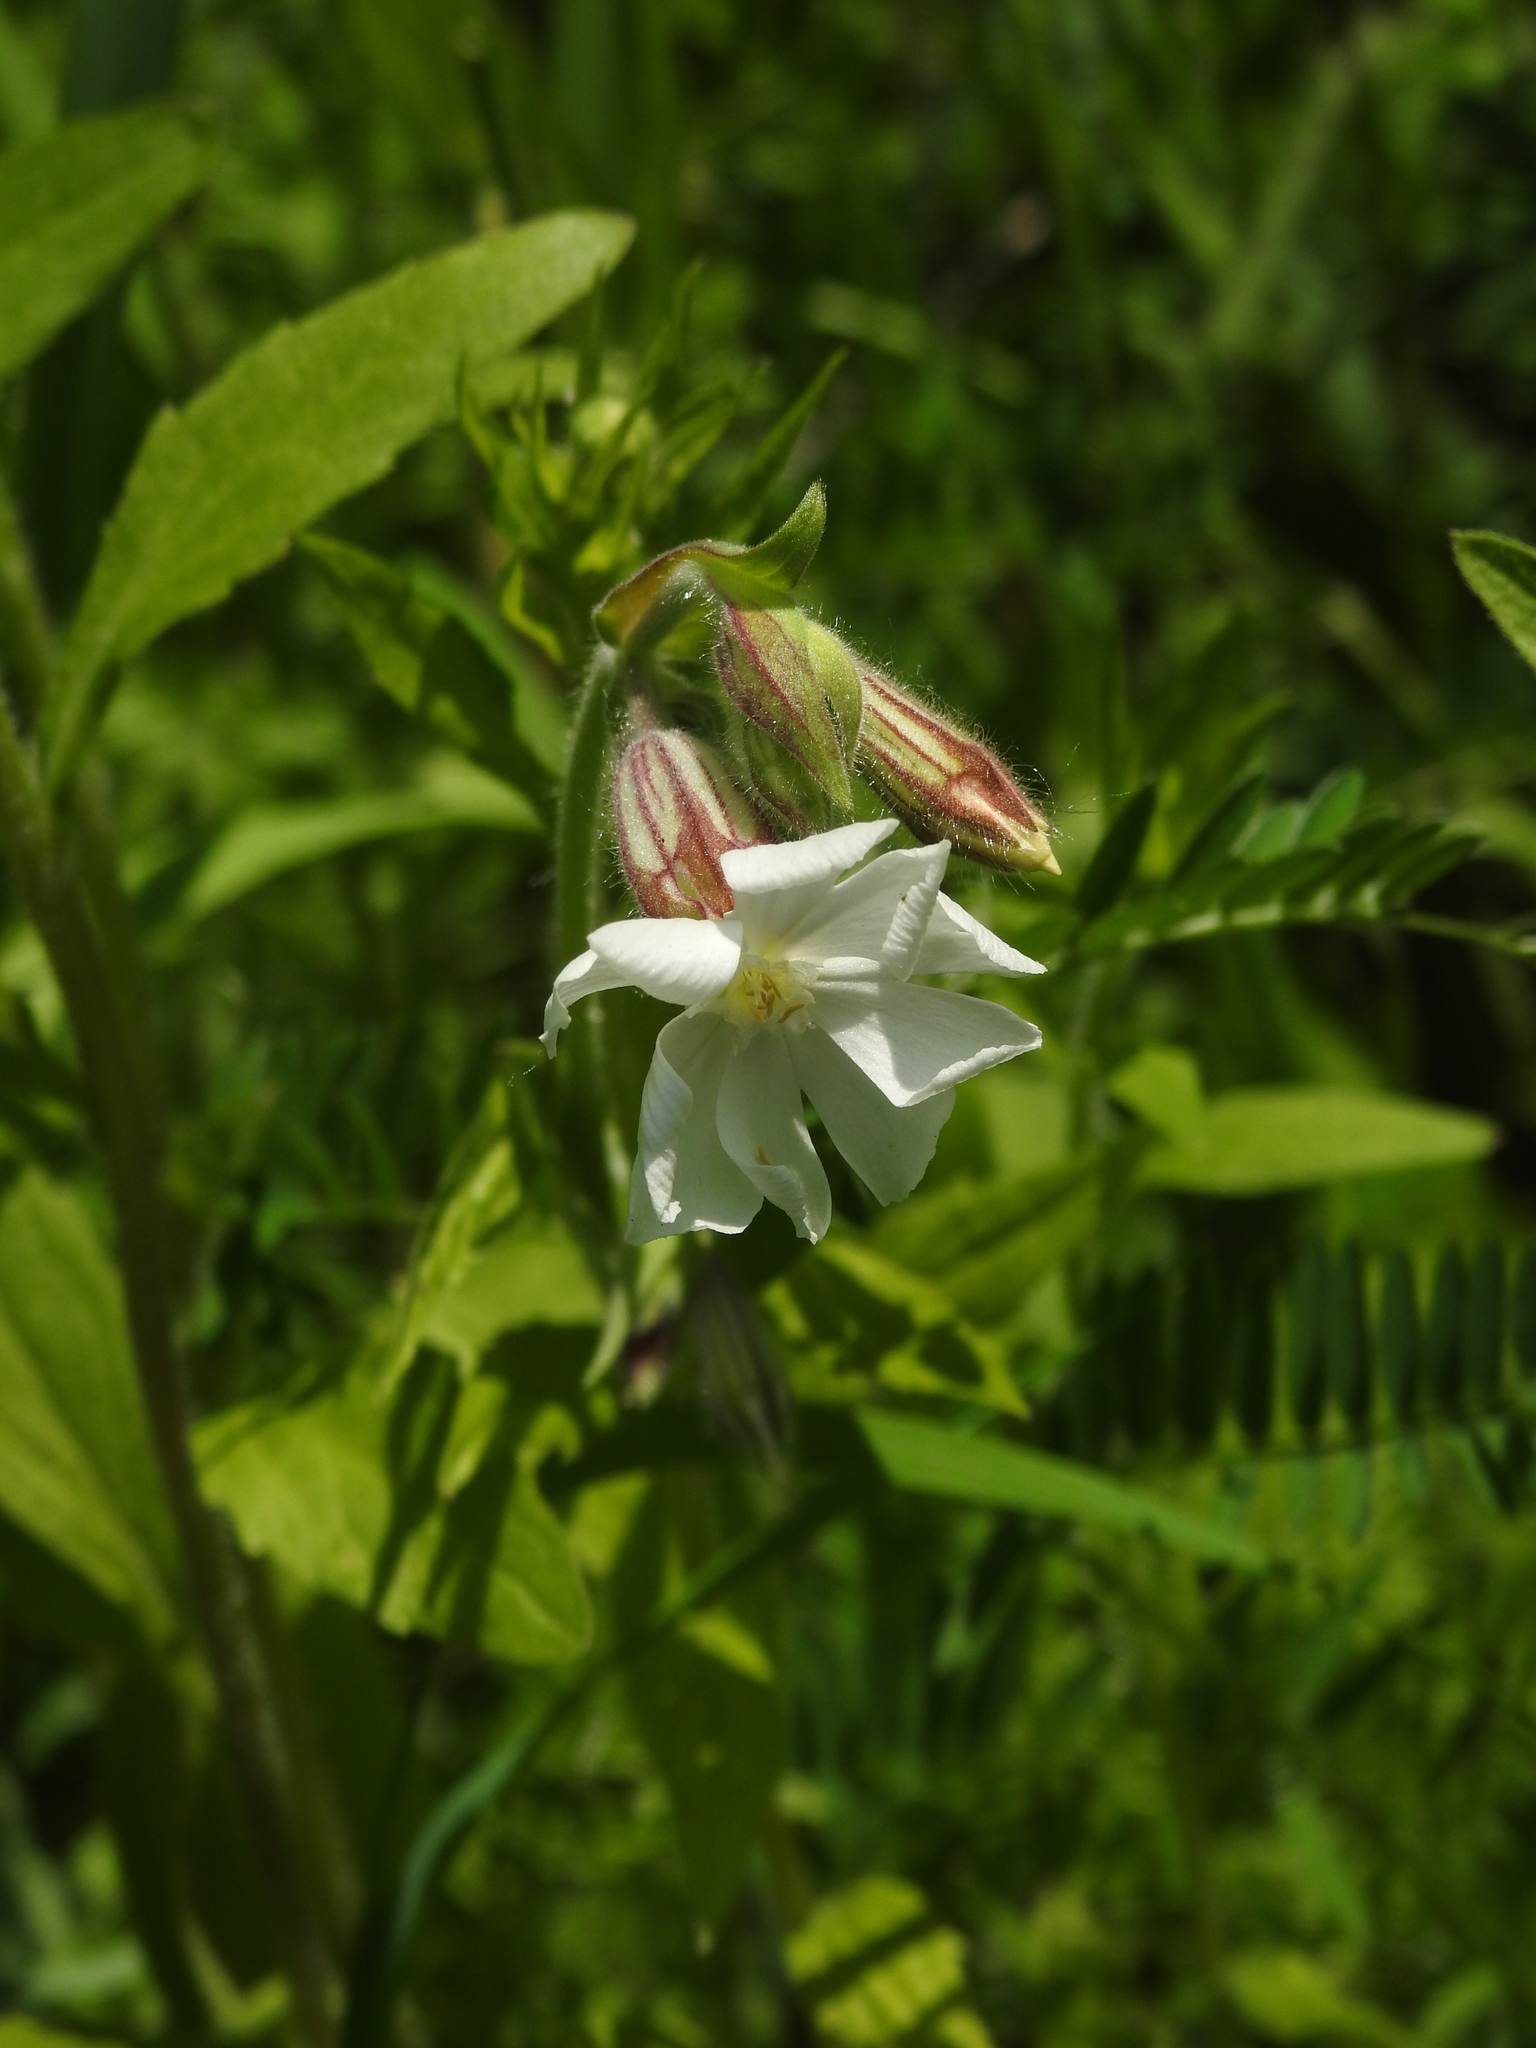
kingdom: Plantae
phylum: Tracheophyta
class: Magnoliopsida
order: Caryophyllales
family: Caryophyllaceae
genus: Silene
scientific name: Silene latifolia
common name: White campion
